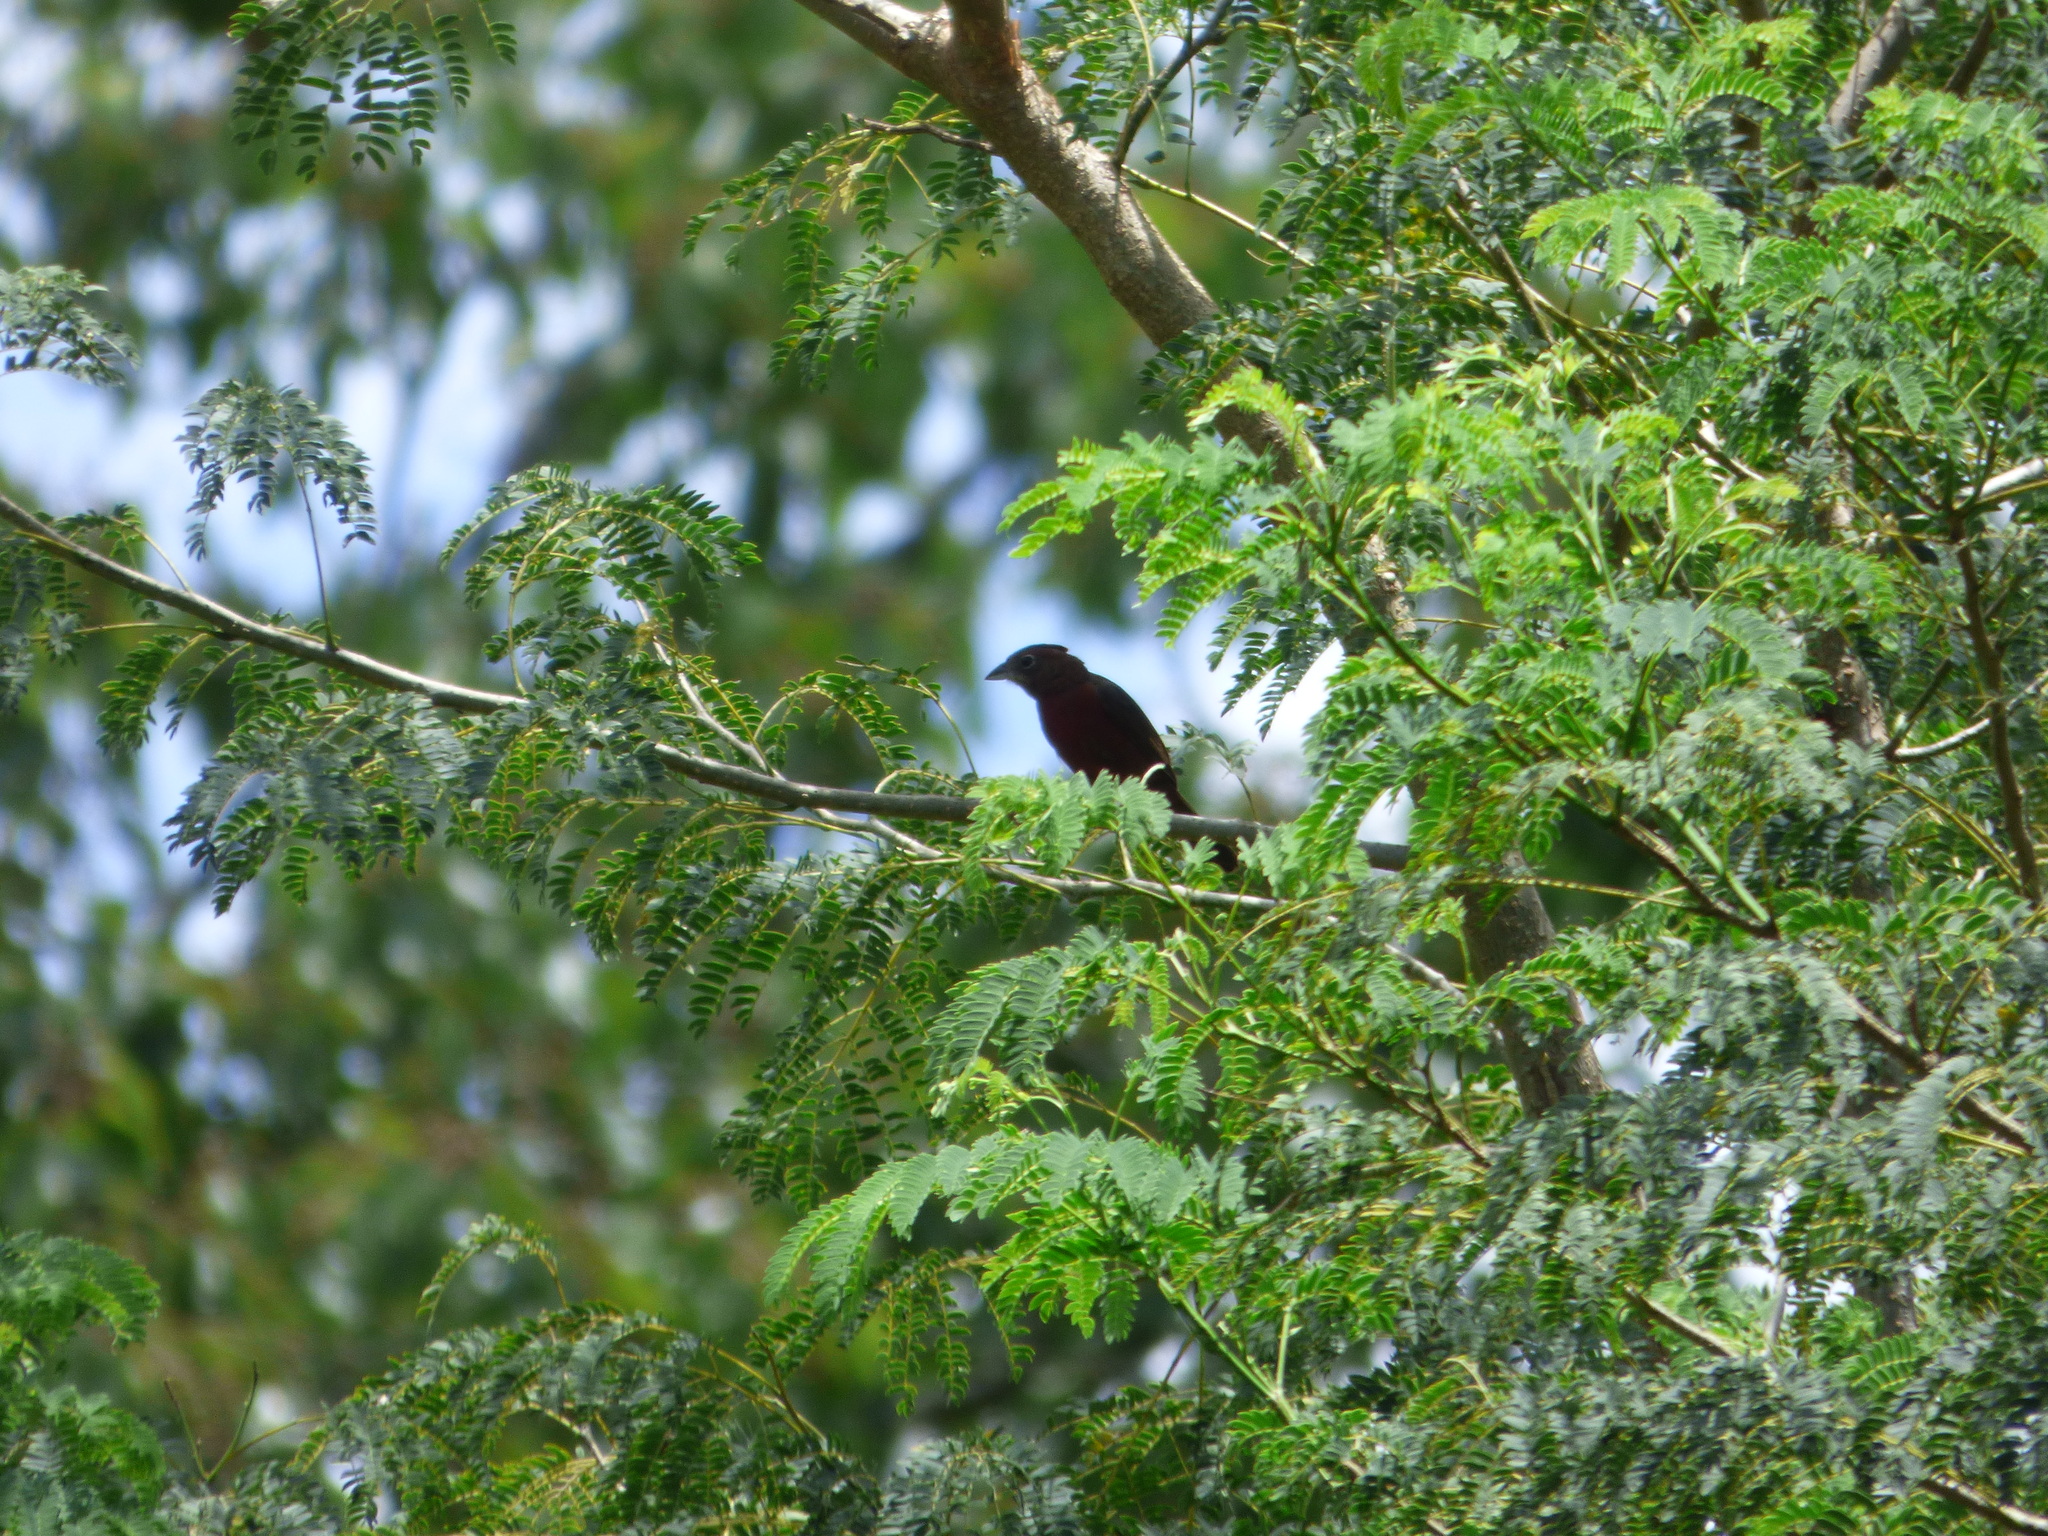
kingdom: Animalia
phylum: Chordata
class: Aves
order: Passeriformes
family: Thraupidae
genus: Coryphospingus
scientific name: Coryphospingus cucullatus
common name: Red pileated finch
